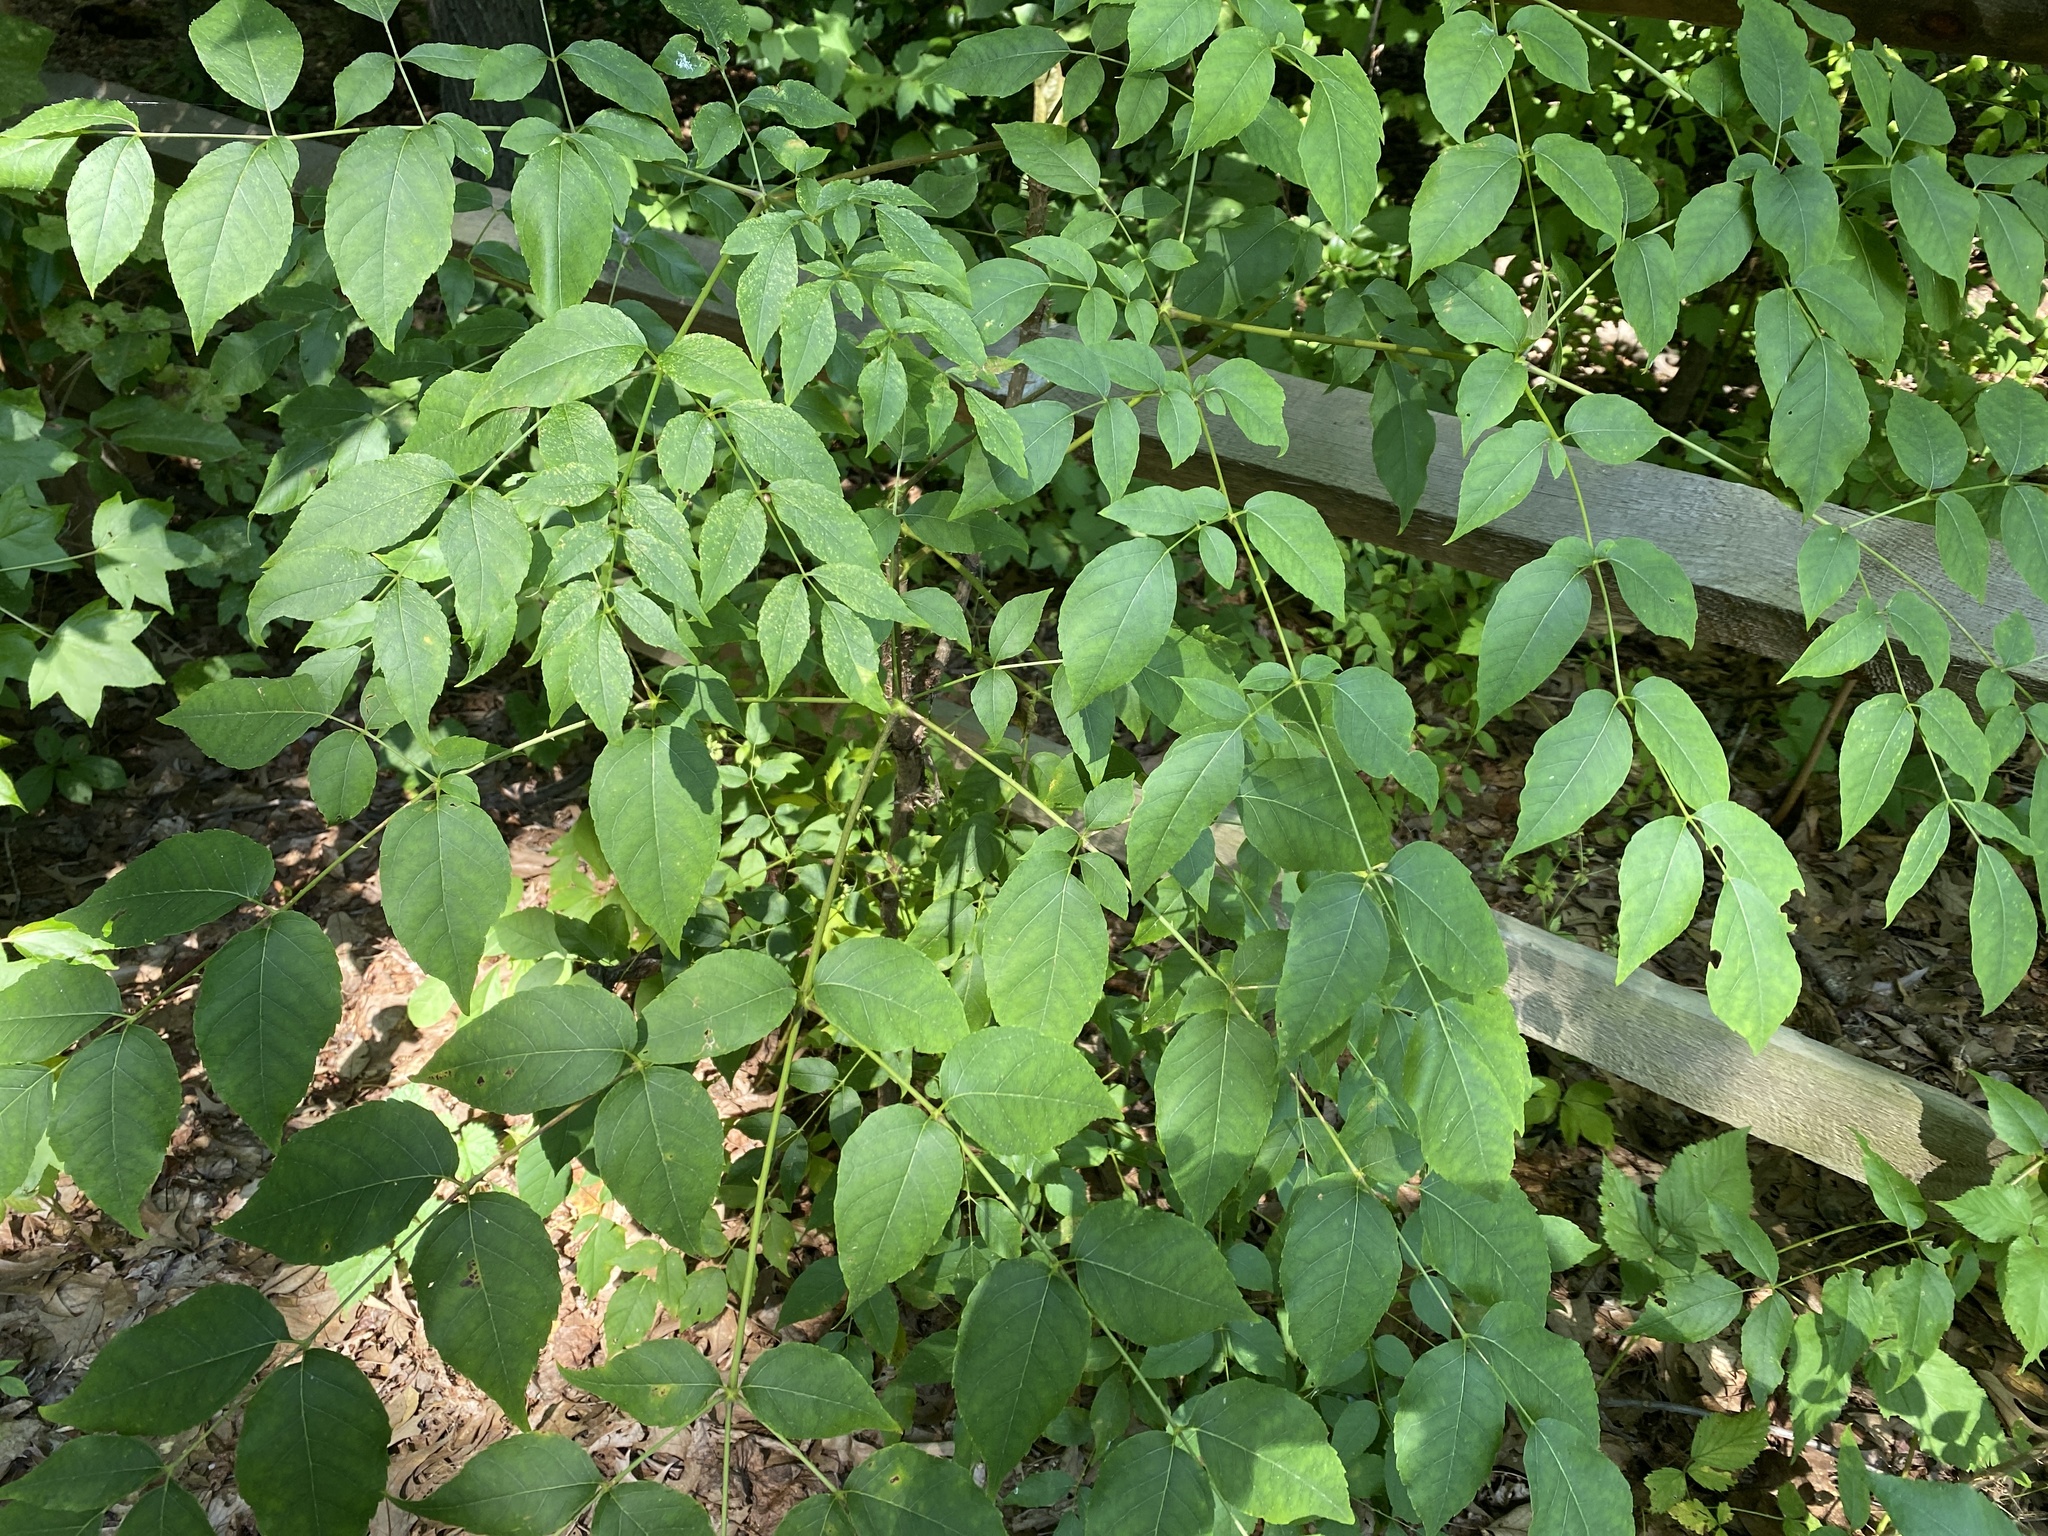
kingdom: Plantae
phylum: Tracheophyta
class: Magnoliopsida
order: Apiales
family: Araliaceae
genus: Aralia
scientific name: Aralia spinosa
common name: Hercules'-club
